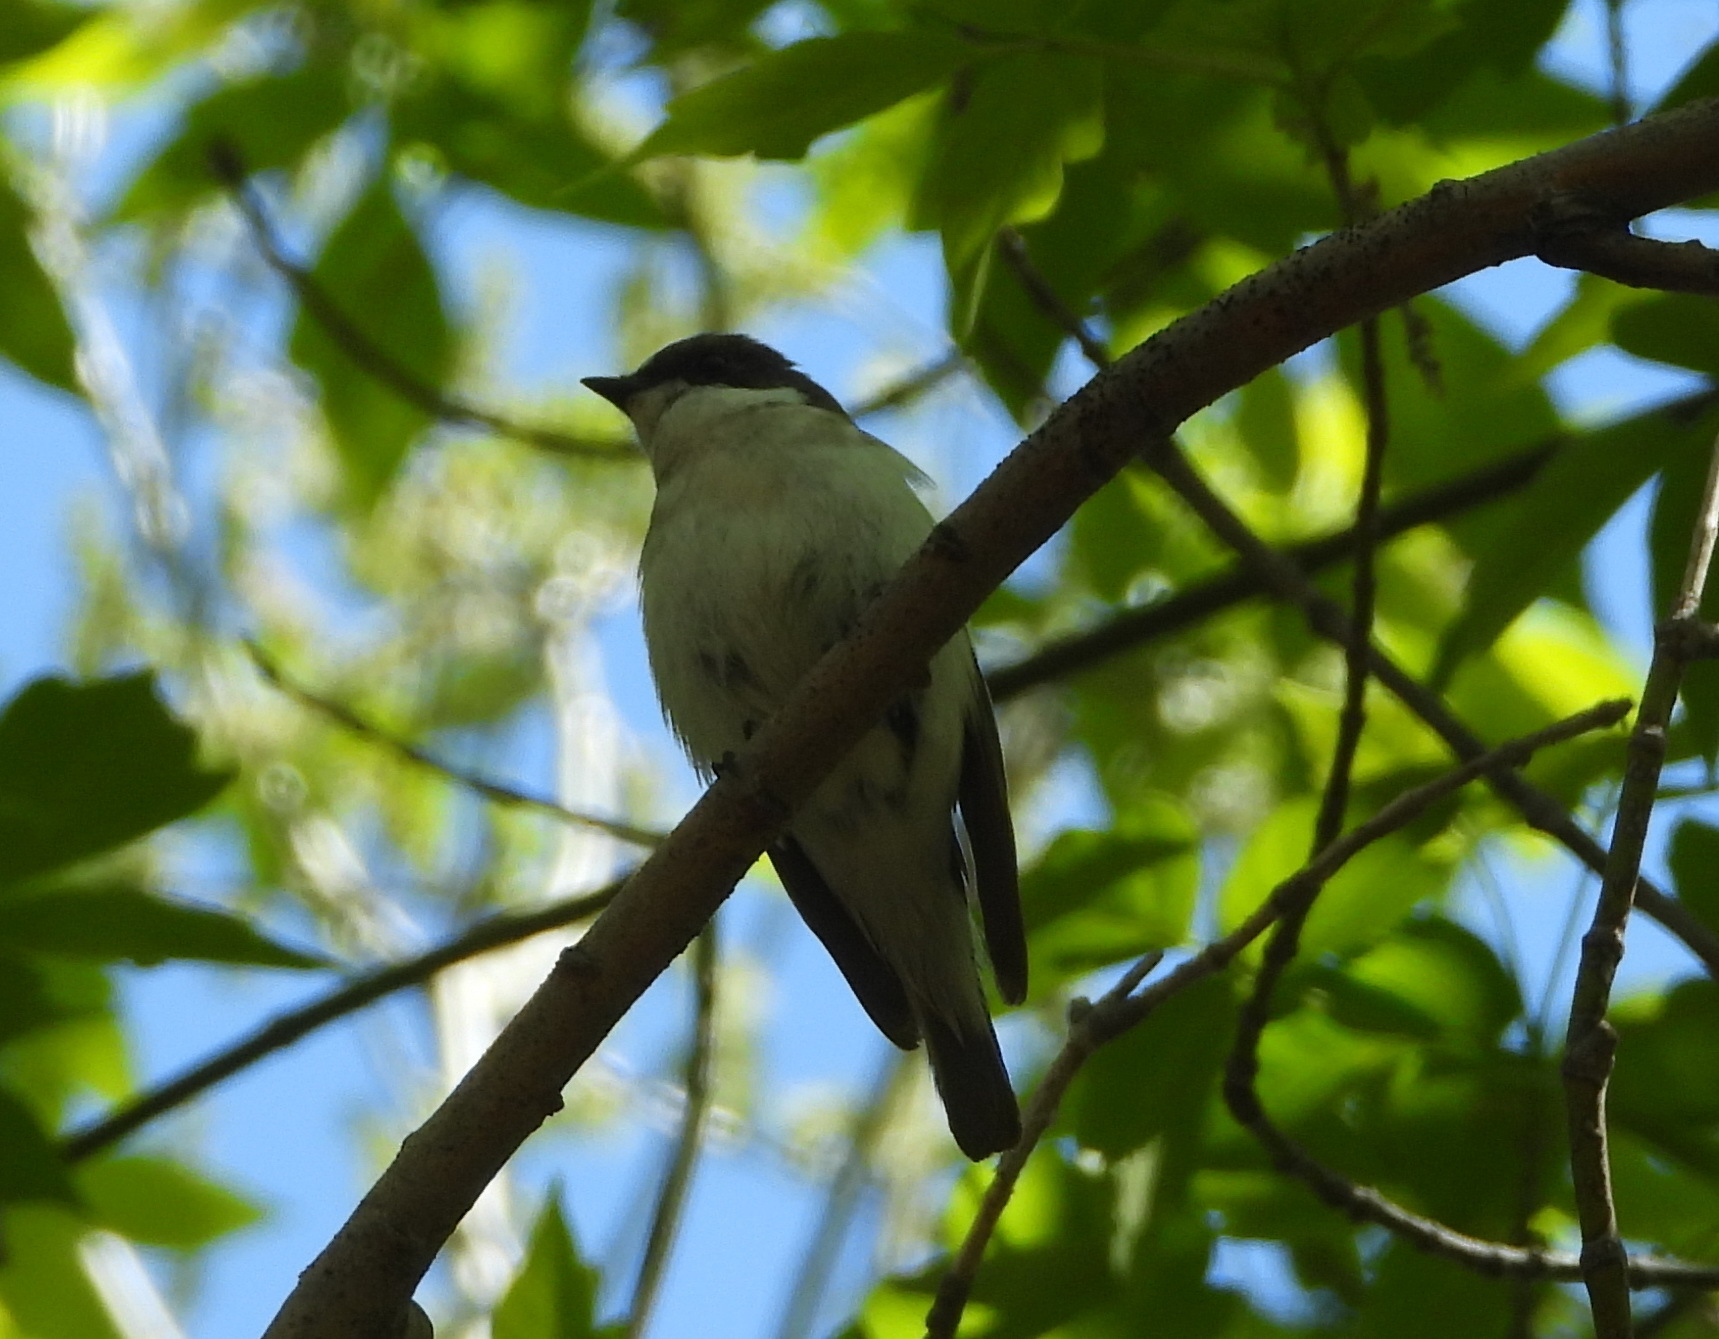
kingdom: Animalia
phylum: Chordata
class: Aves
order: Passeriformes
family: Muscicapidae
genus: Ficedula
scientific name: Ficedula hypoleuca
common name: European pied flycatcher
